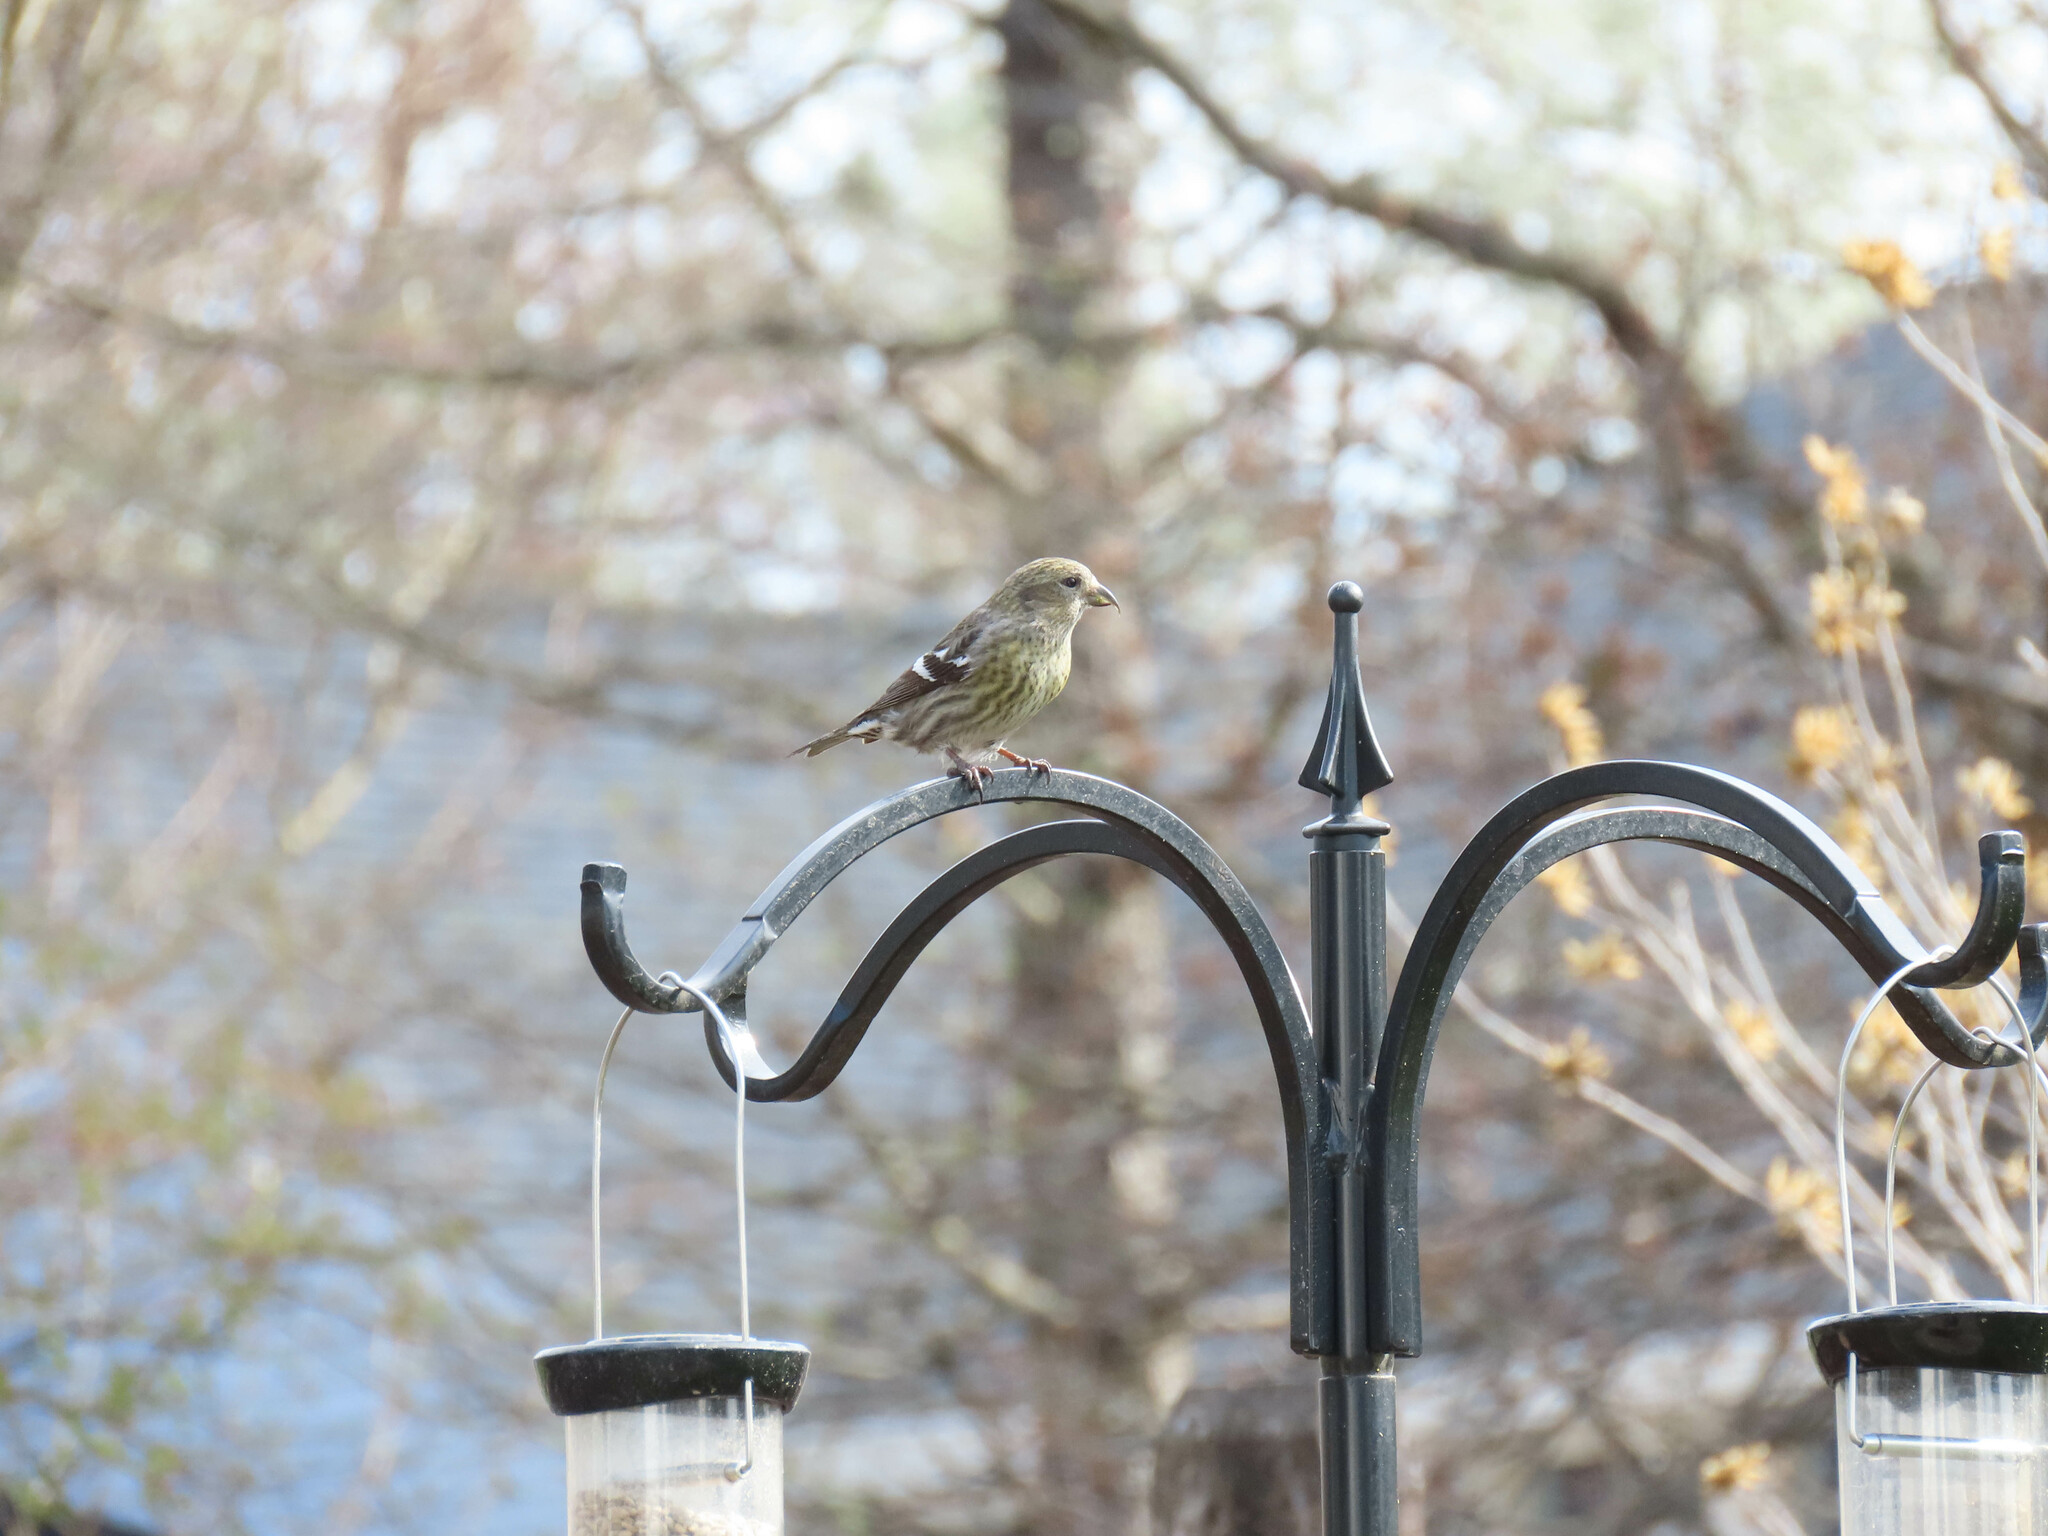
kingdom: Animalia
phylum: Chordata
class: Aves
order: Passeriformes
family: Fringillidae
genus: Spinus
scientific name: Spinus pinus
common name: Pine siskin
